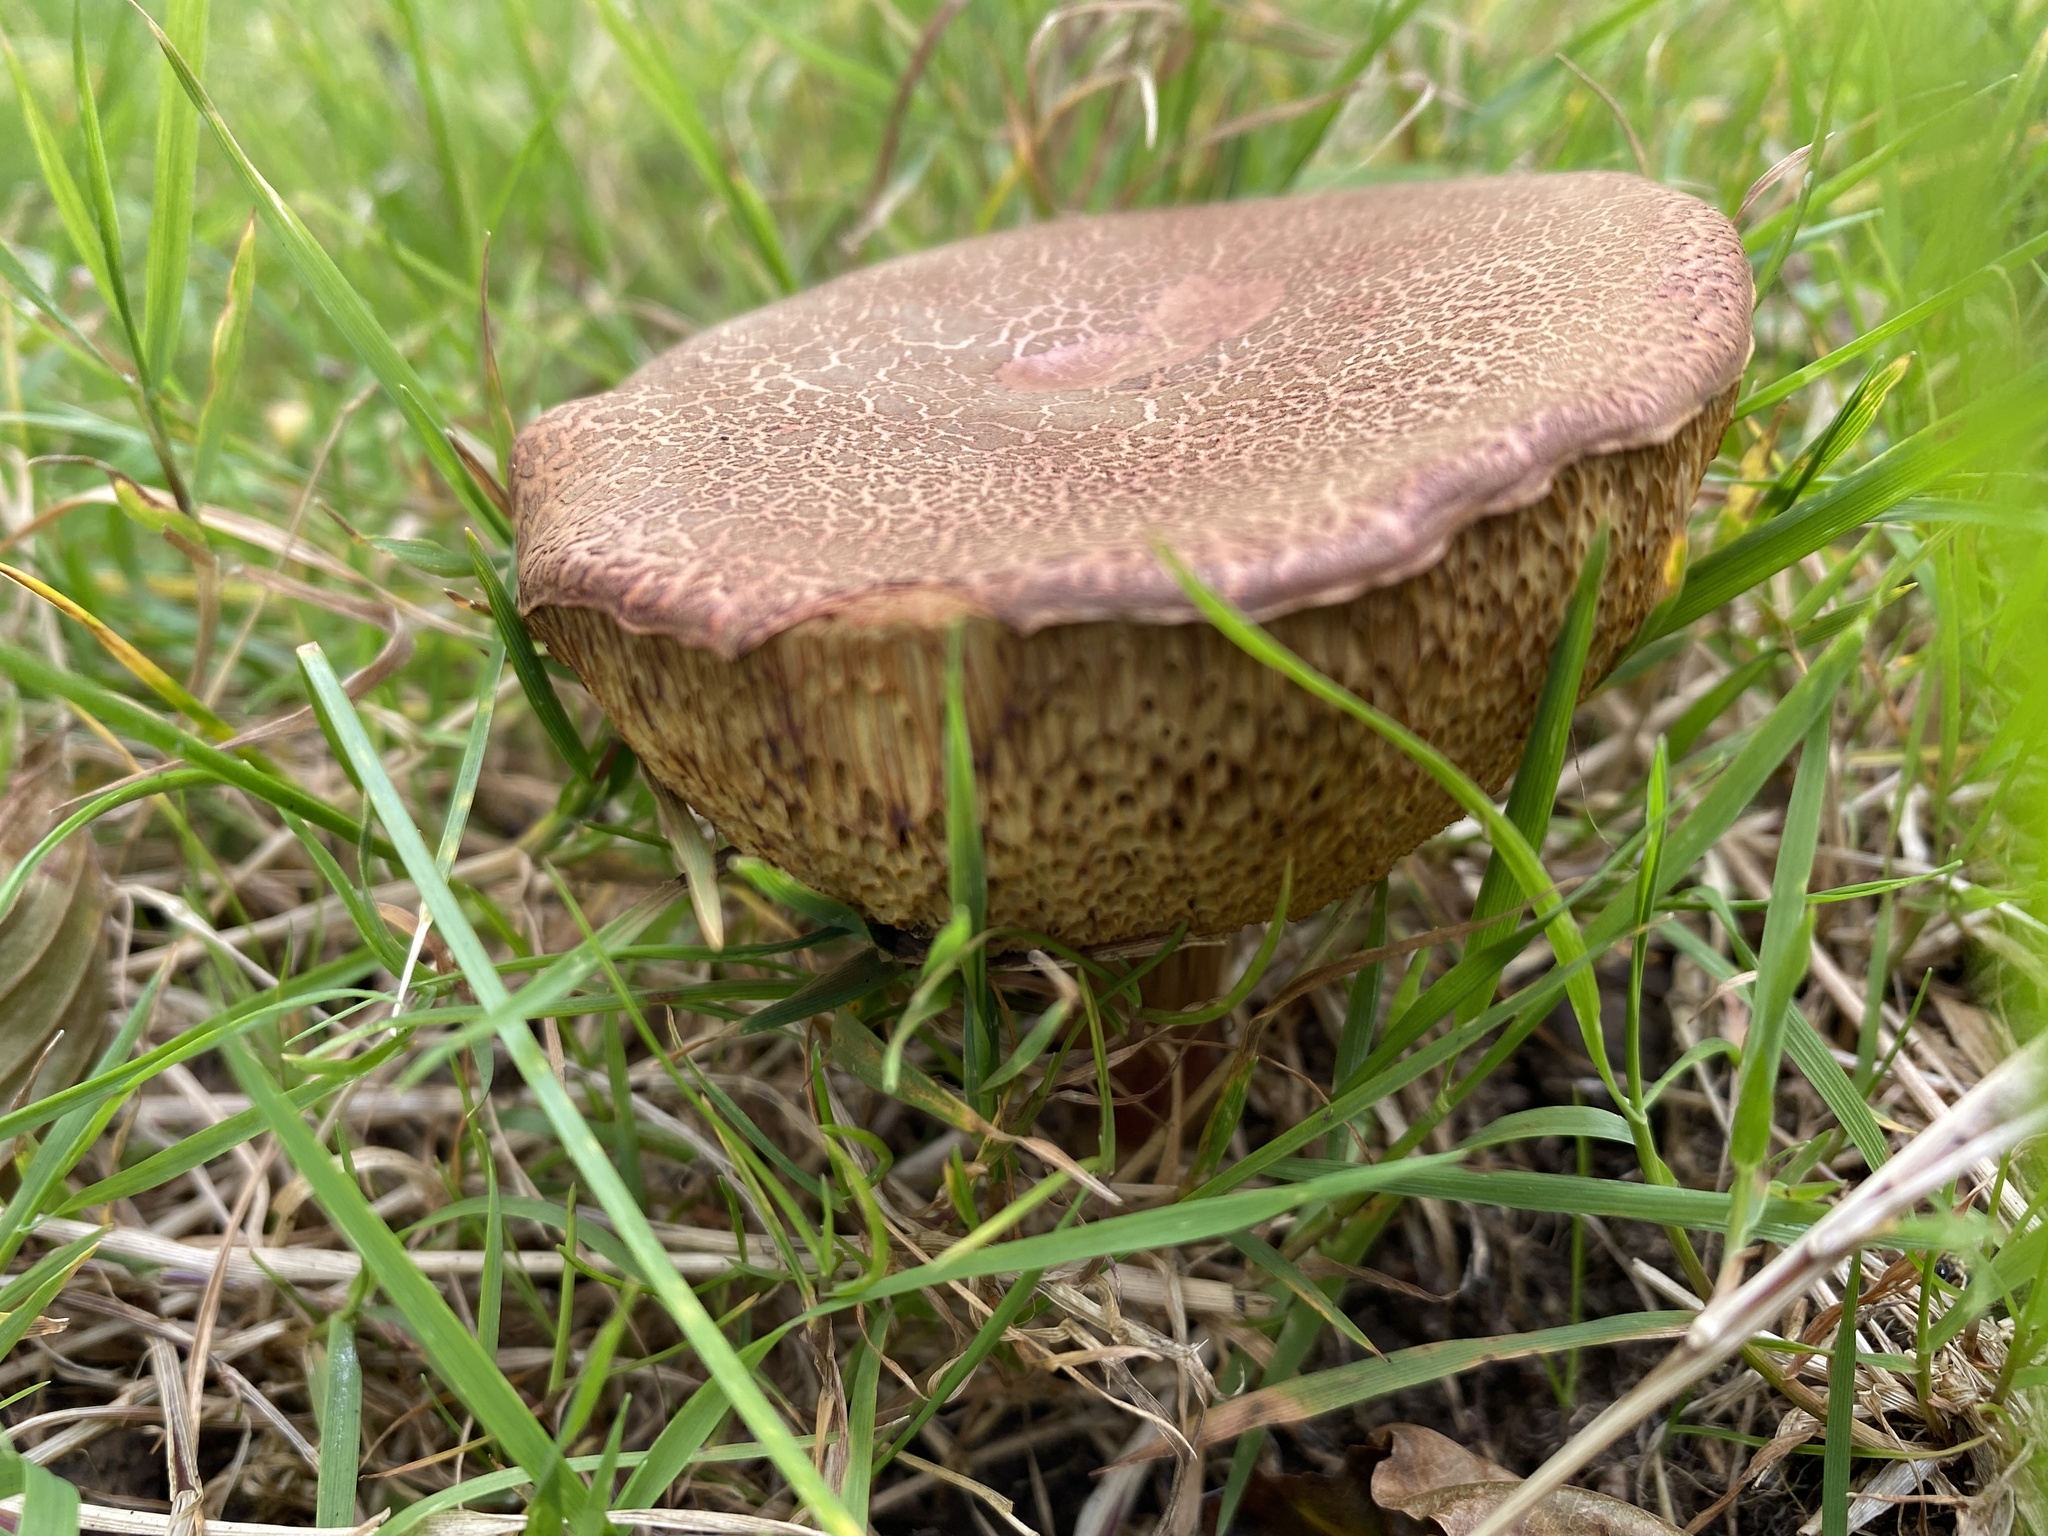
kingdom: Fungi
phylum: Basidiomycota
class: Agaricomycetes
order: Boletales
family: Boletaceae
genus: Xerocomellus
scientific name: Xerocomellus chrysenteron
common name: Red-cracking bolete
